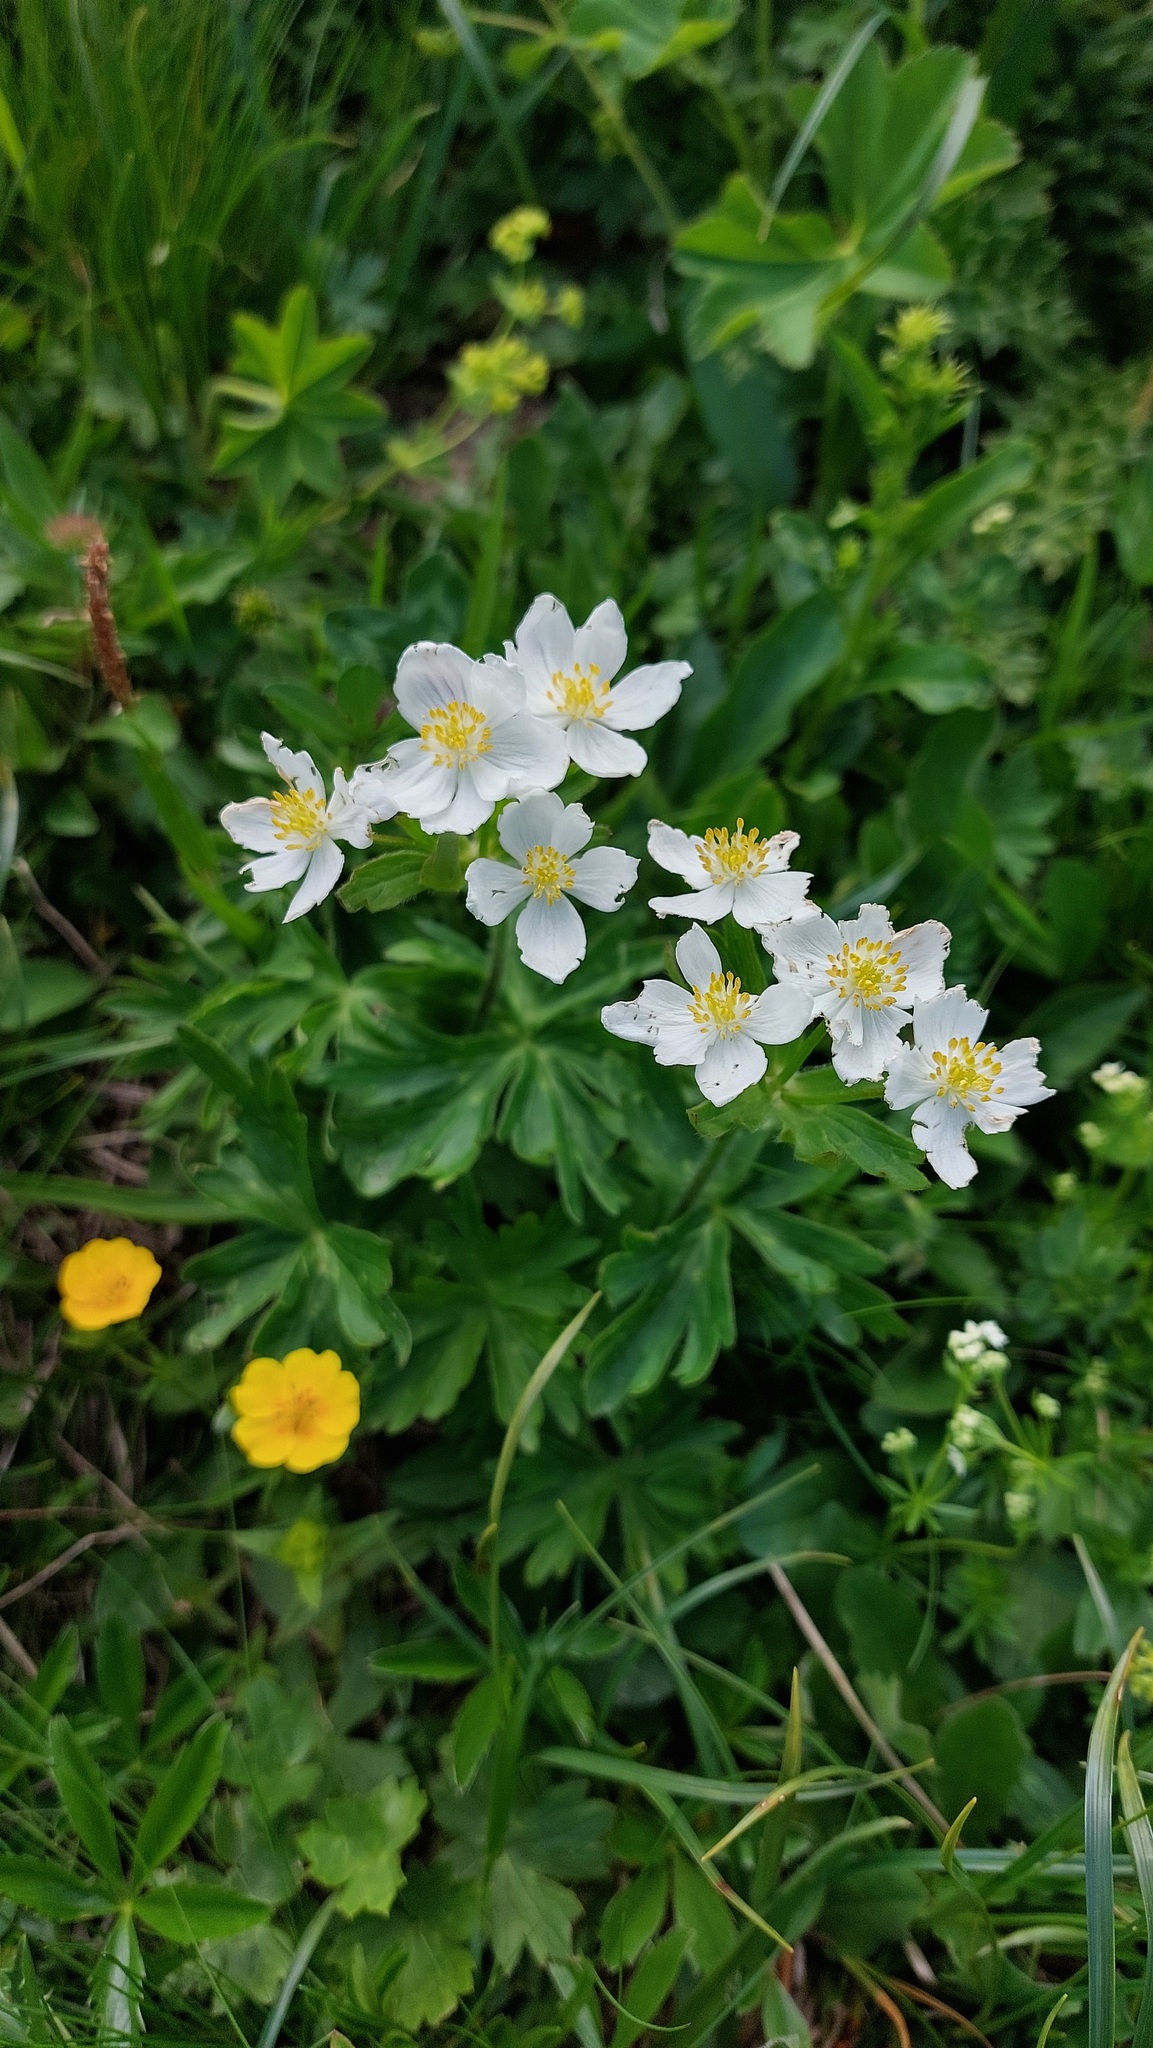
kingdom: Plantae
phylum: Tracheophyta
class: Magnoliopsida
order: Ranunculales
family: Ranunculaceae
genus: Ranunculus
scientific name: Ranunculus aconitifolius
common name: Aconite-leaved buttercup
